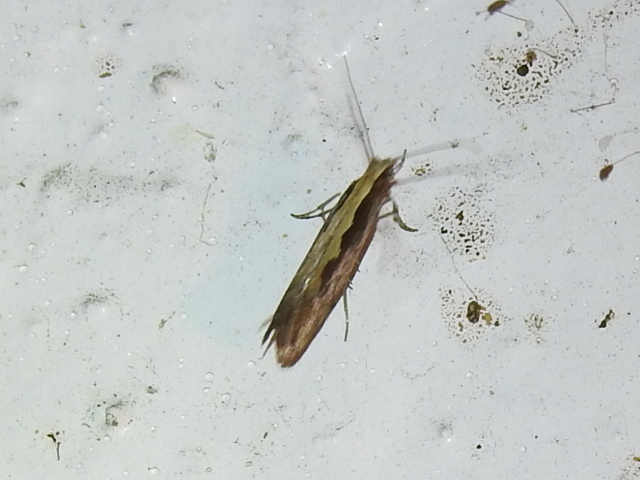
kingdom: Animalia
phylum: Arthropoda
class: Insecta
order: Lepidoptera
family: Plutellidae
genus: Plutella
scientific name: Plutella xylostella
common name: Diamond-back moth
